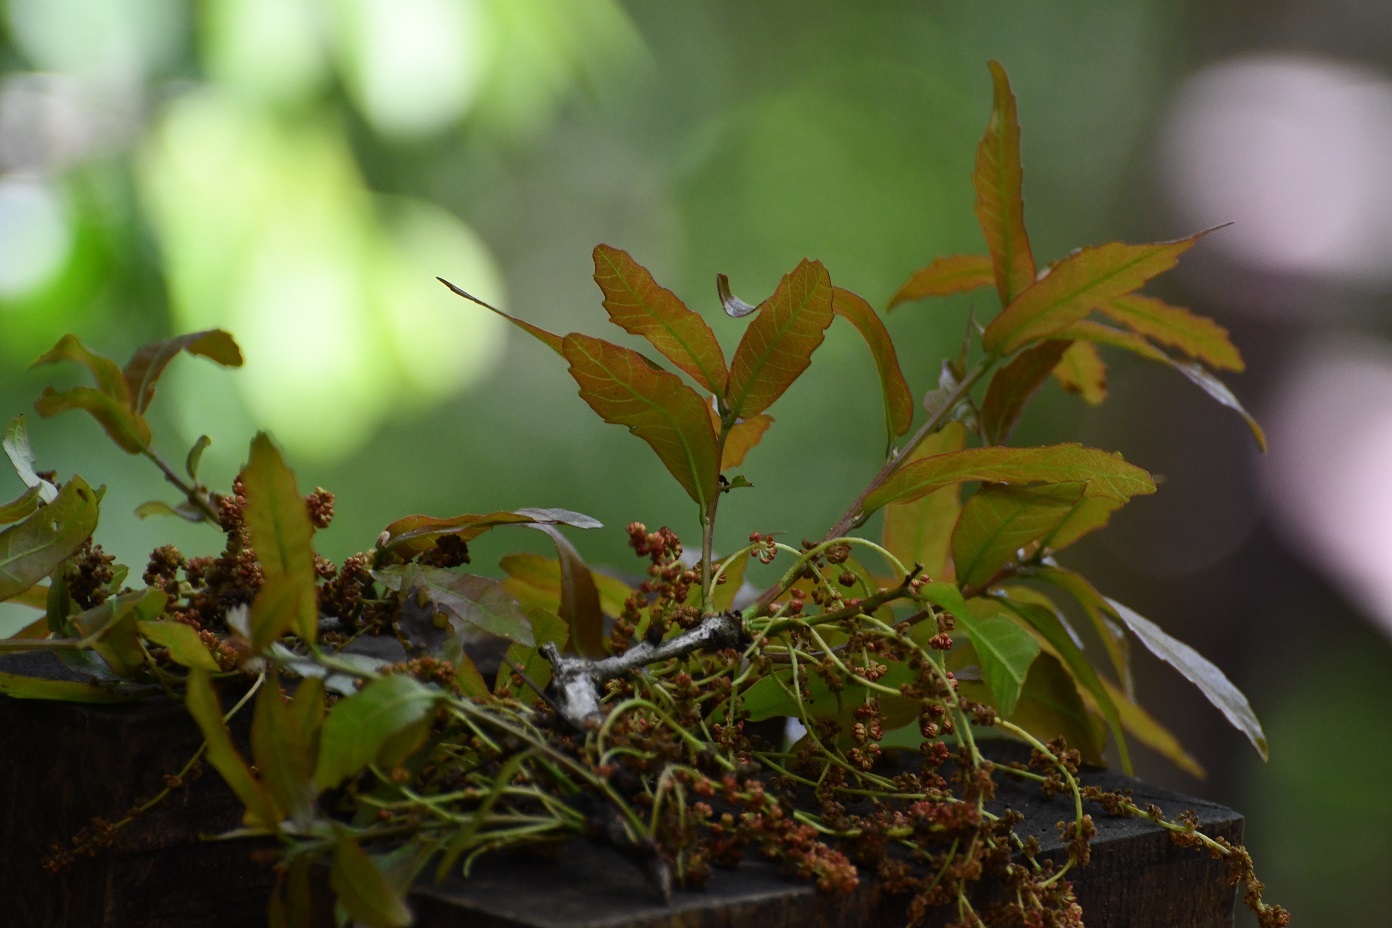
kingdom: Plantae
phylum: Tracheophyta
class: Magnoliopsida
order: Fagales
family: Fagaceae
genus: Quercus
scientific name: Quercus corrugata
